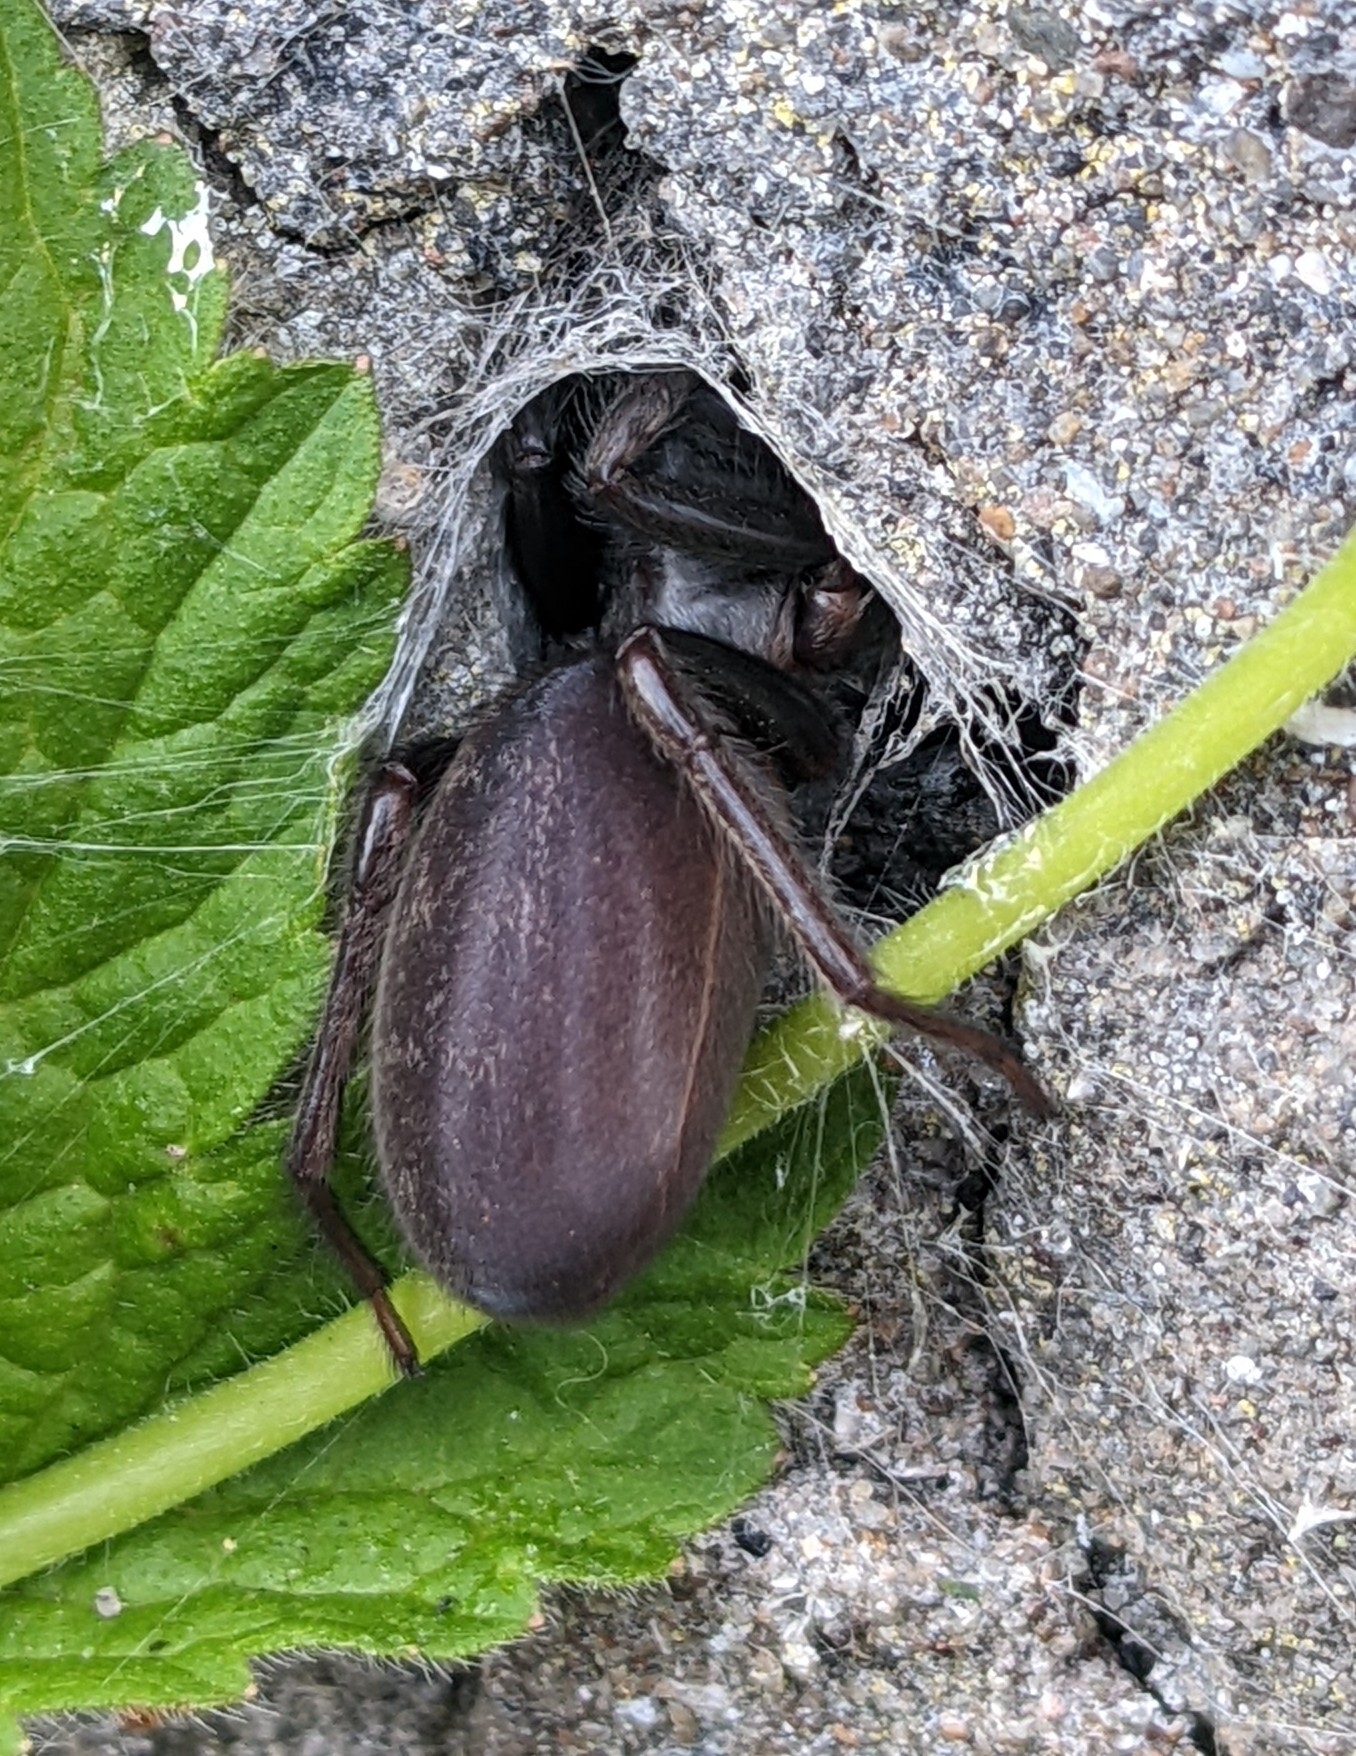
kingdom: Animalia
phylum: Arthropoda
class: Arachnida
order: Araneae
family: Segestriidae
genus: Segestria
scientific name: Segestria florentina
